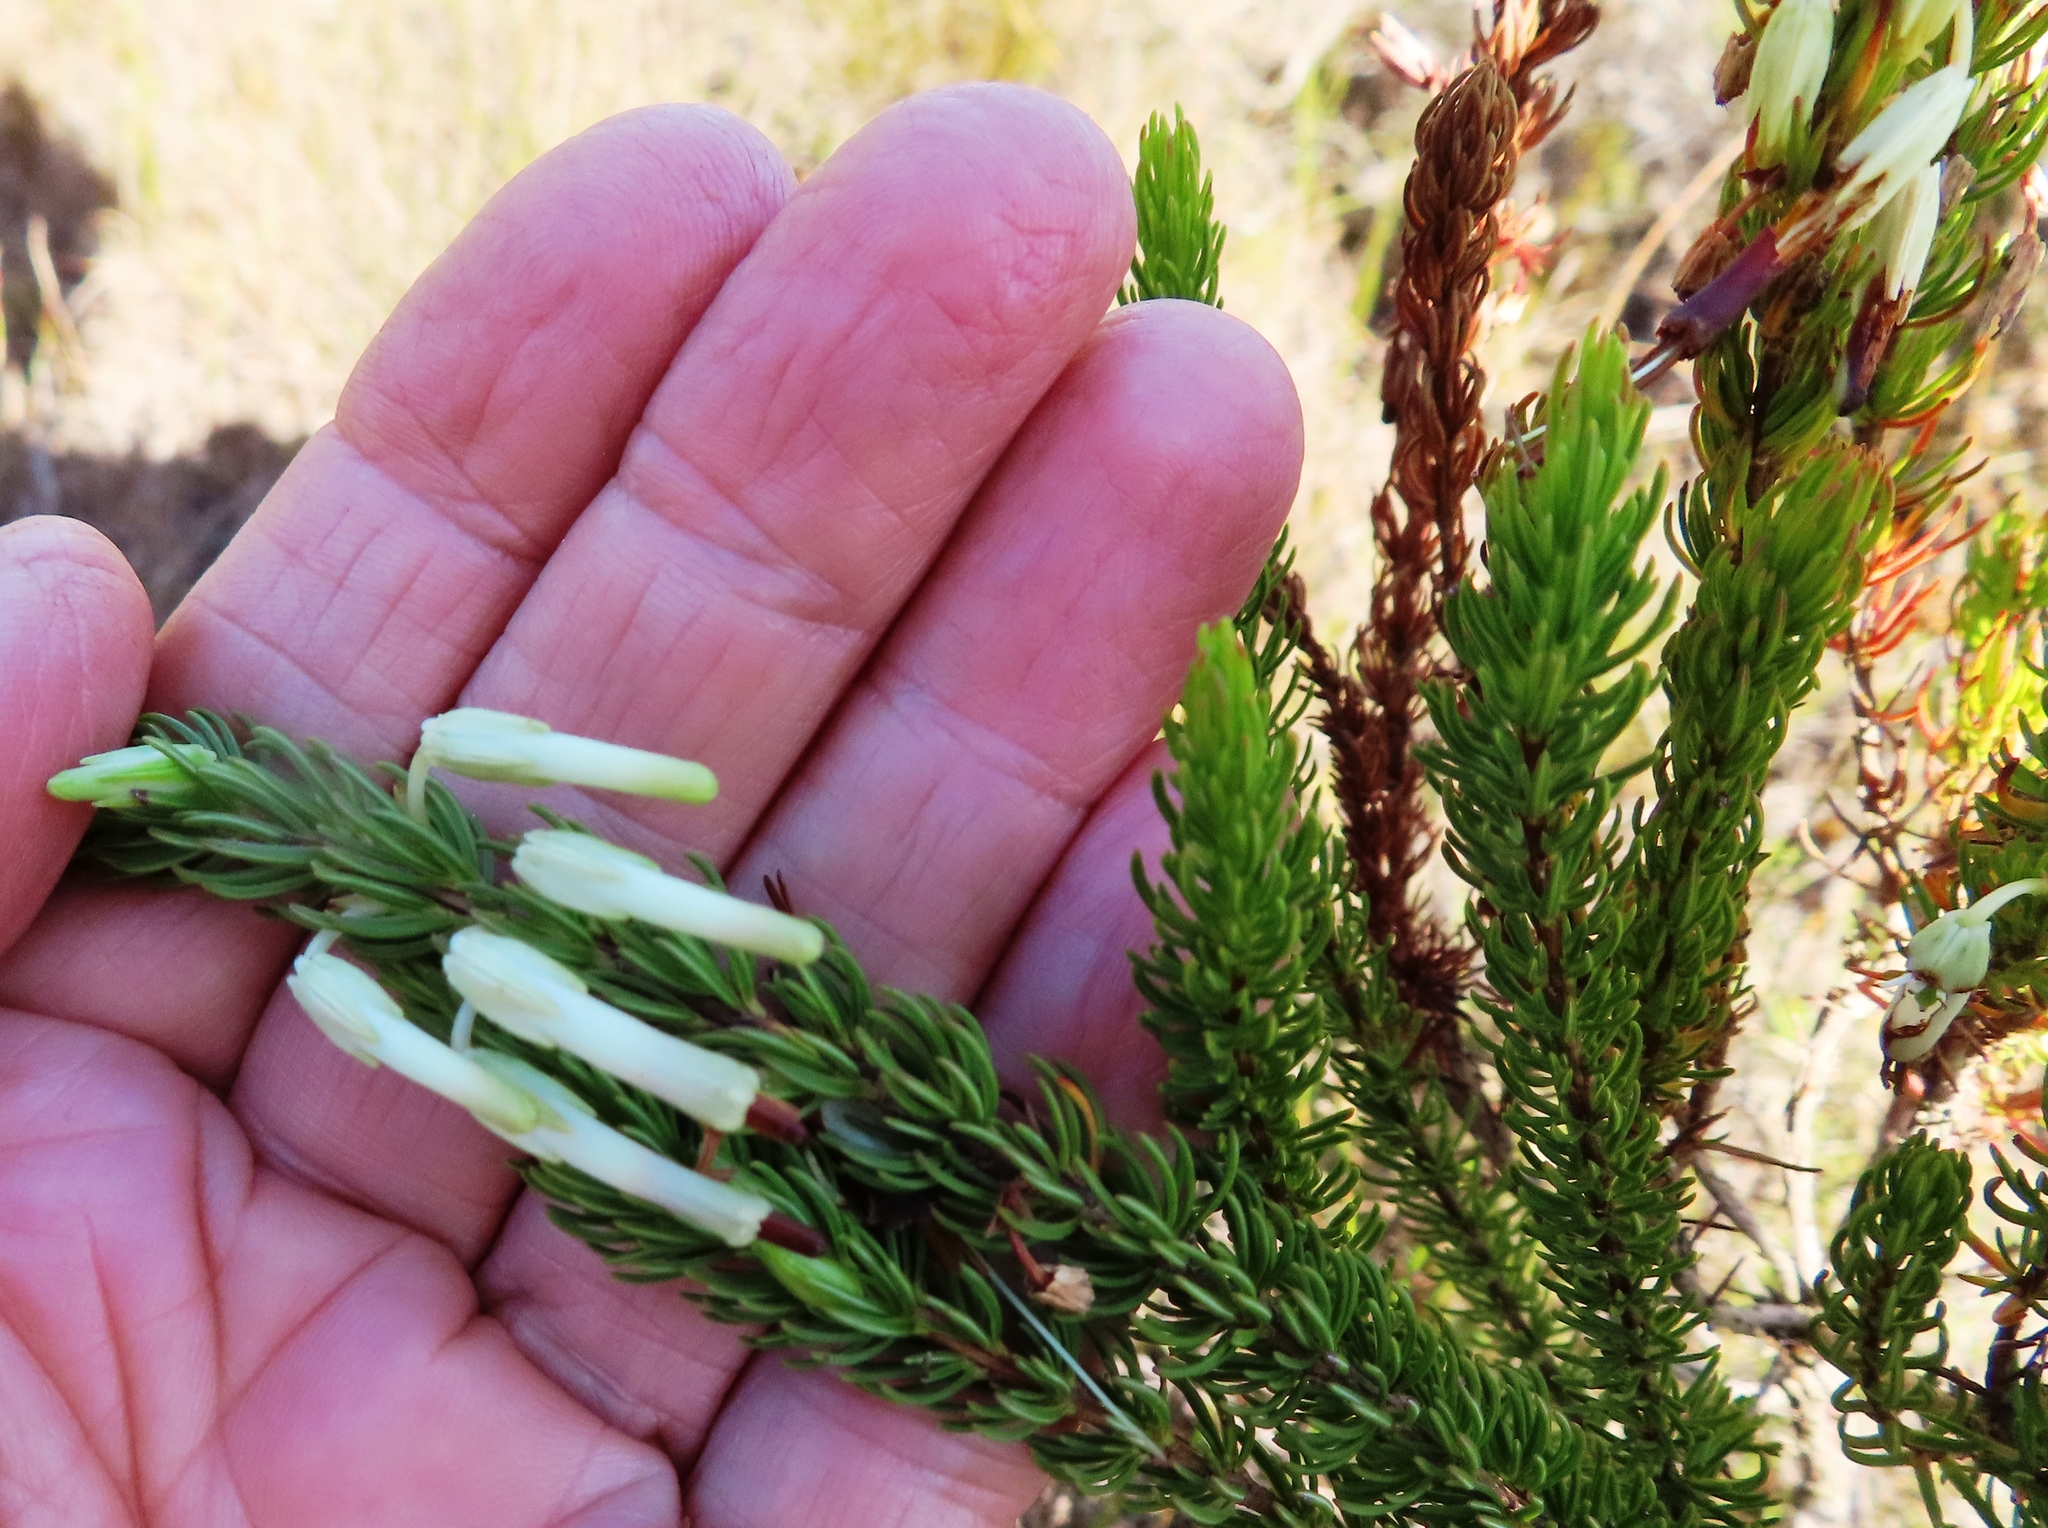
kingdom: Plantae
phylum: Tracheophyta
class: Magnoliopsida
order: Ericales
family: Ericaceae
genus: Erica
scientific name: Erica plukenetii
